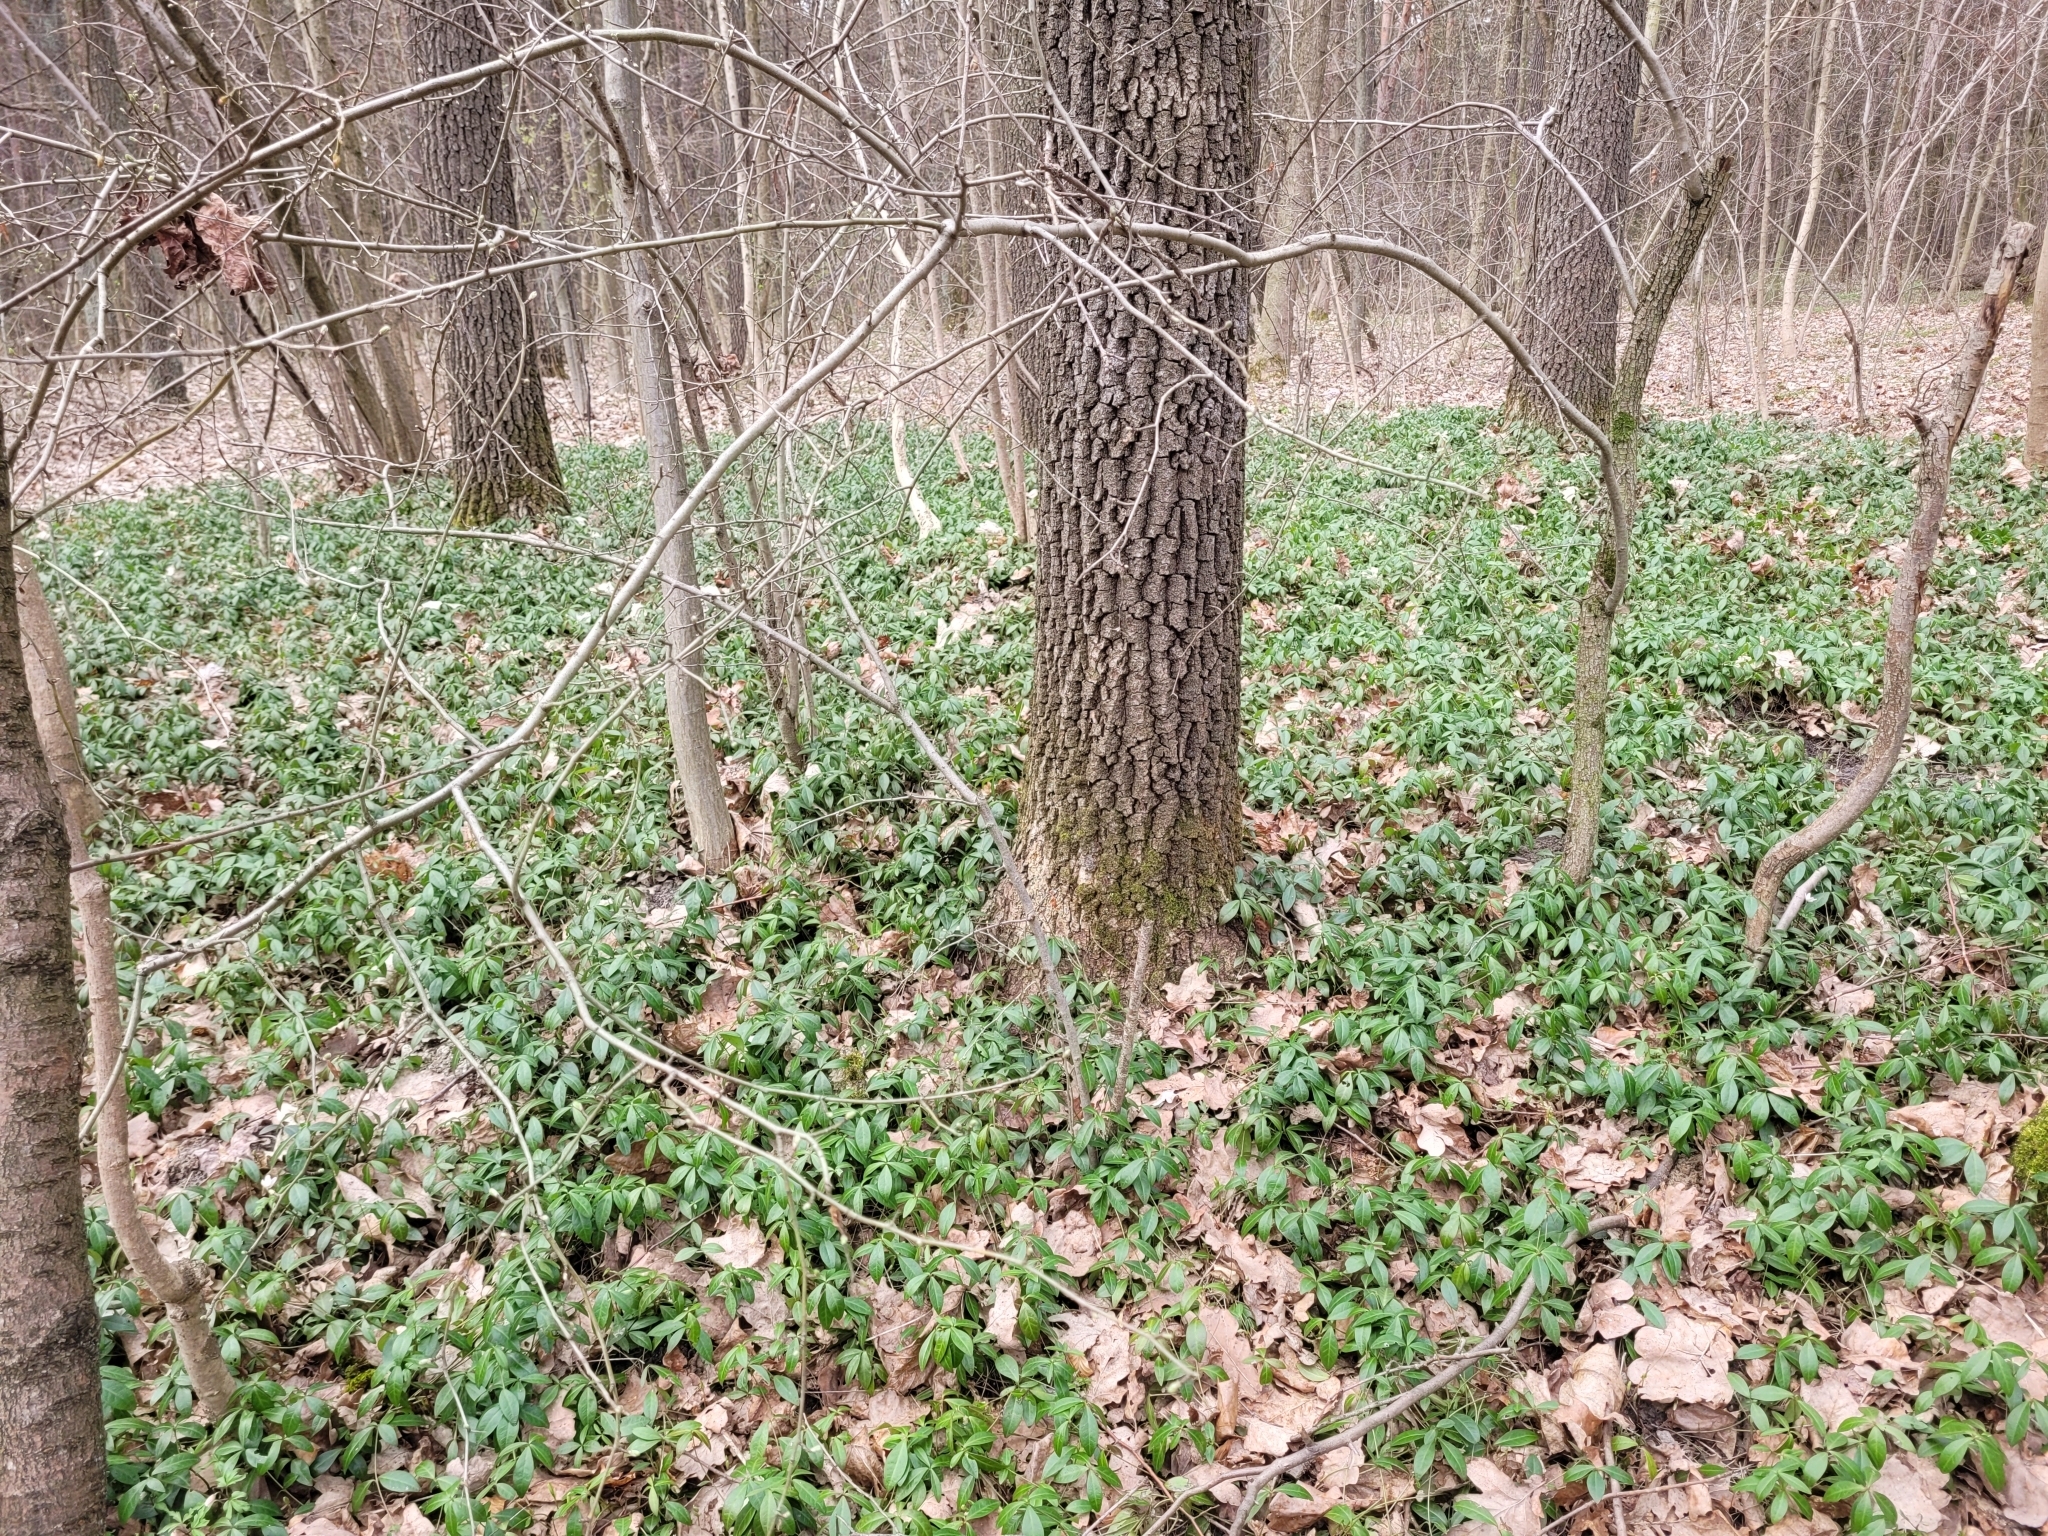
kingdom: Plantae
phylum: Tracheophyta
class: Magnoliopsida
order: Gentianales
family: Apocynaceae
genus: Vinca
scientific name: Vinca minor
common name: Lesser periwinkle
